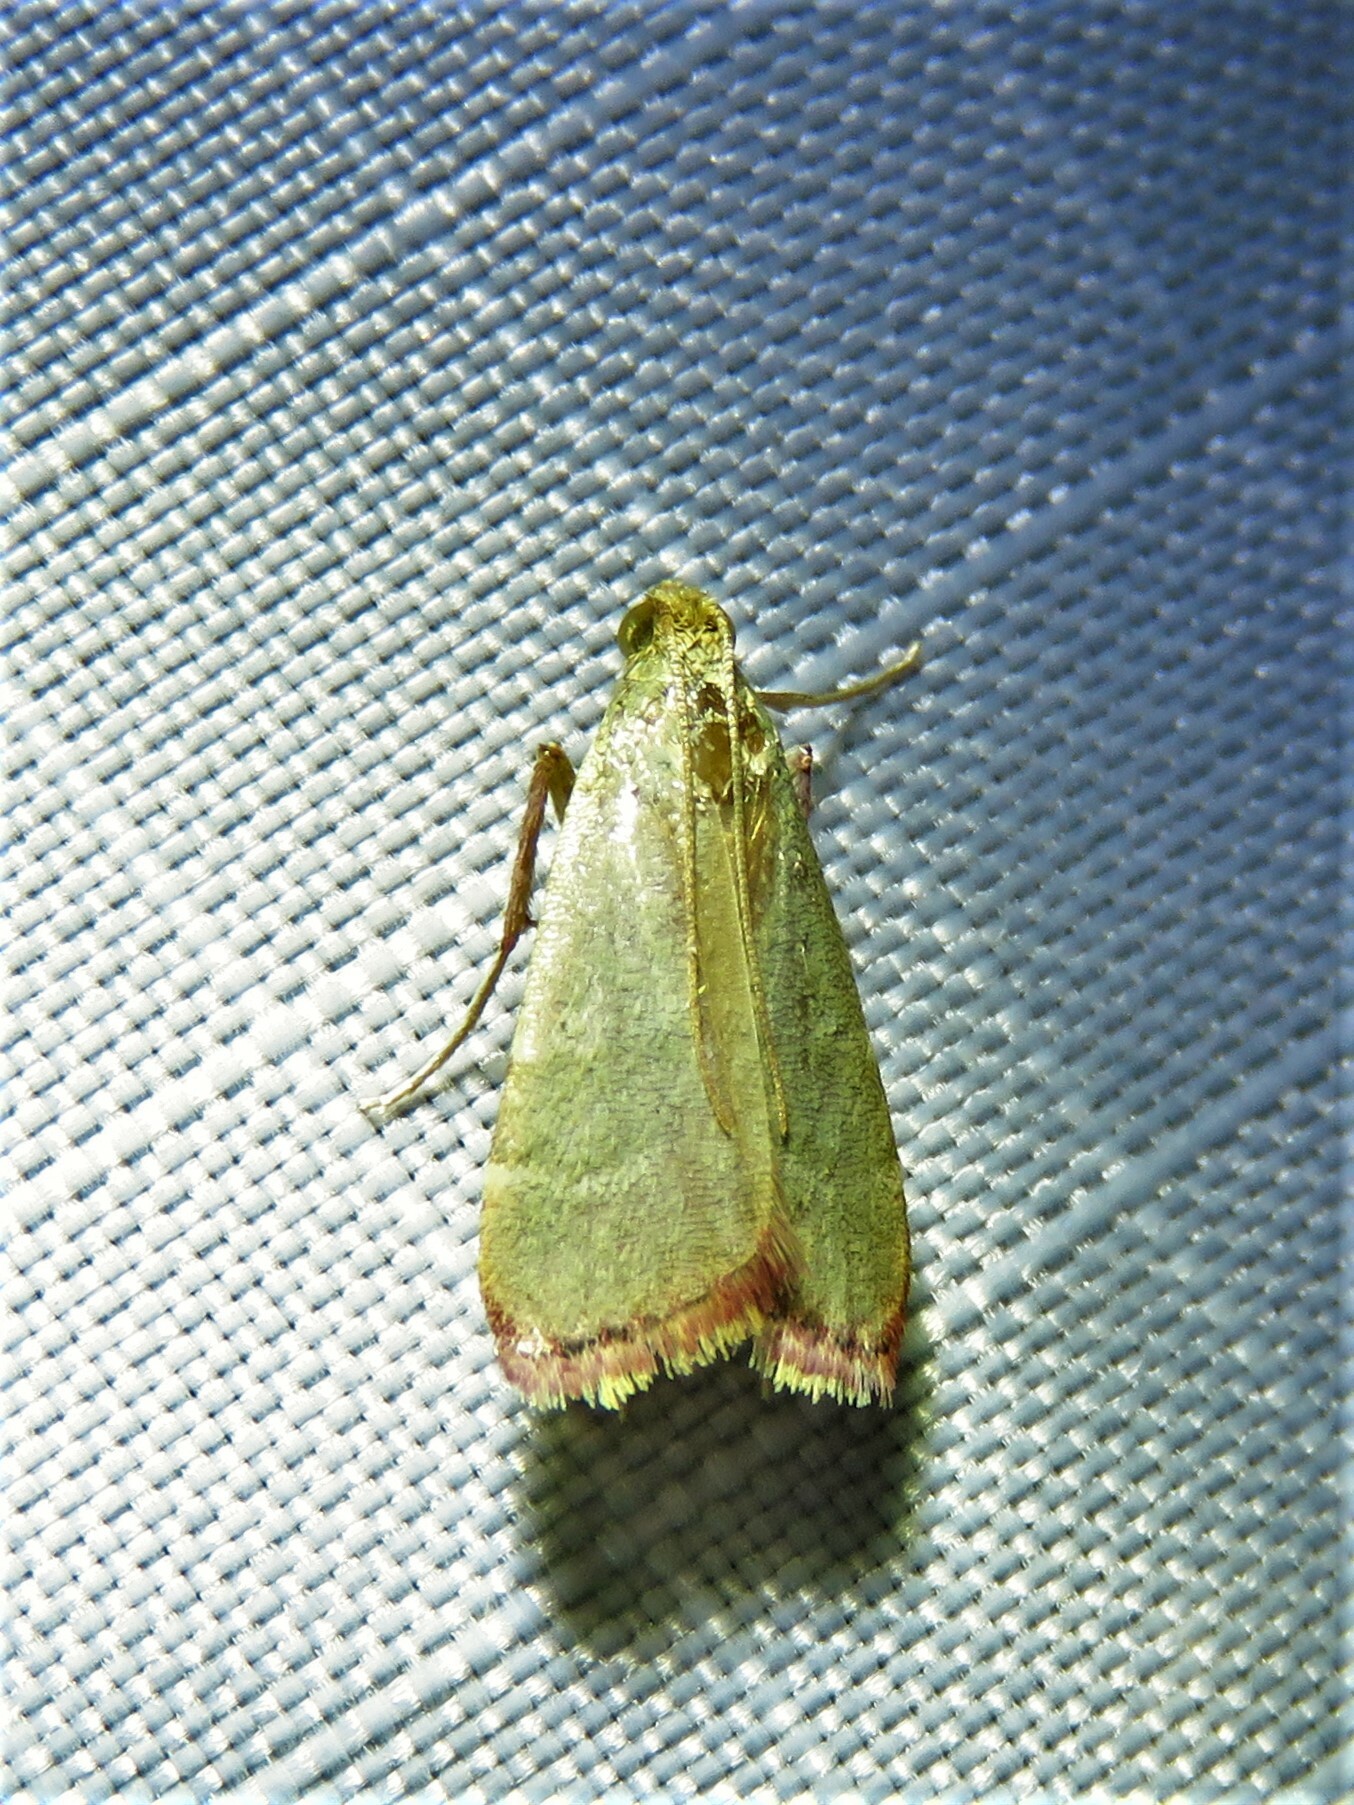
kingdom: Animalia
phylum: Arthropoda
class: Insecta
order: Lepidoptera
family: Pyralidae
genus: Arta
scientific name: Arta olivalis
